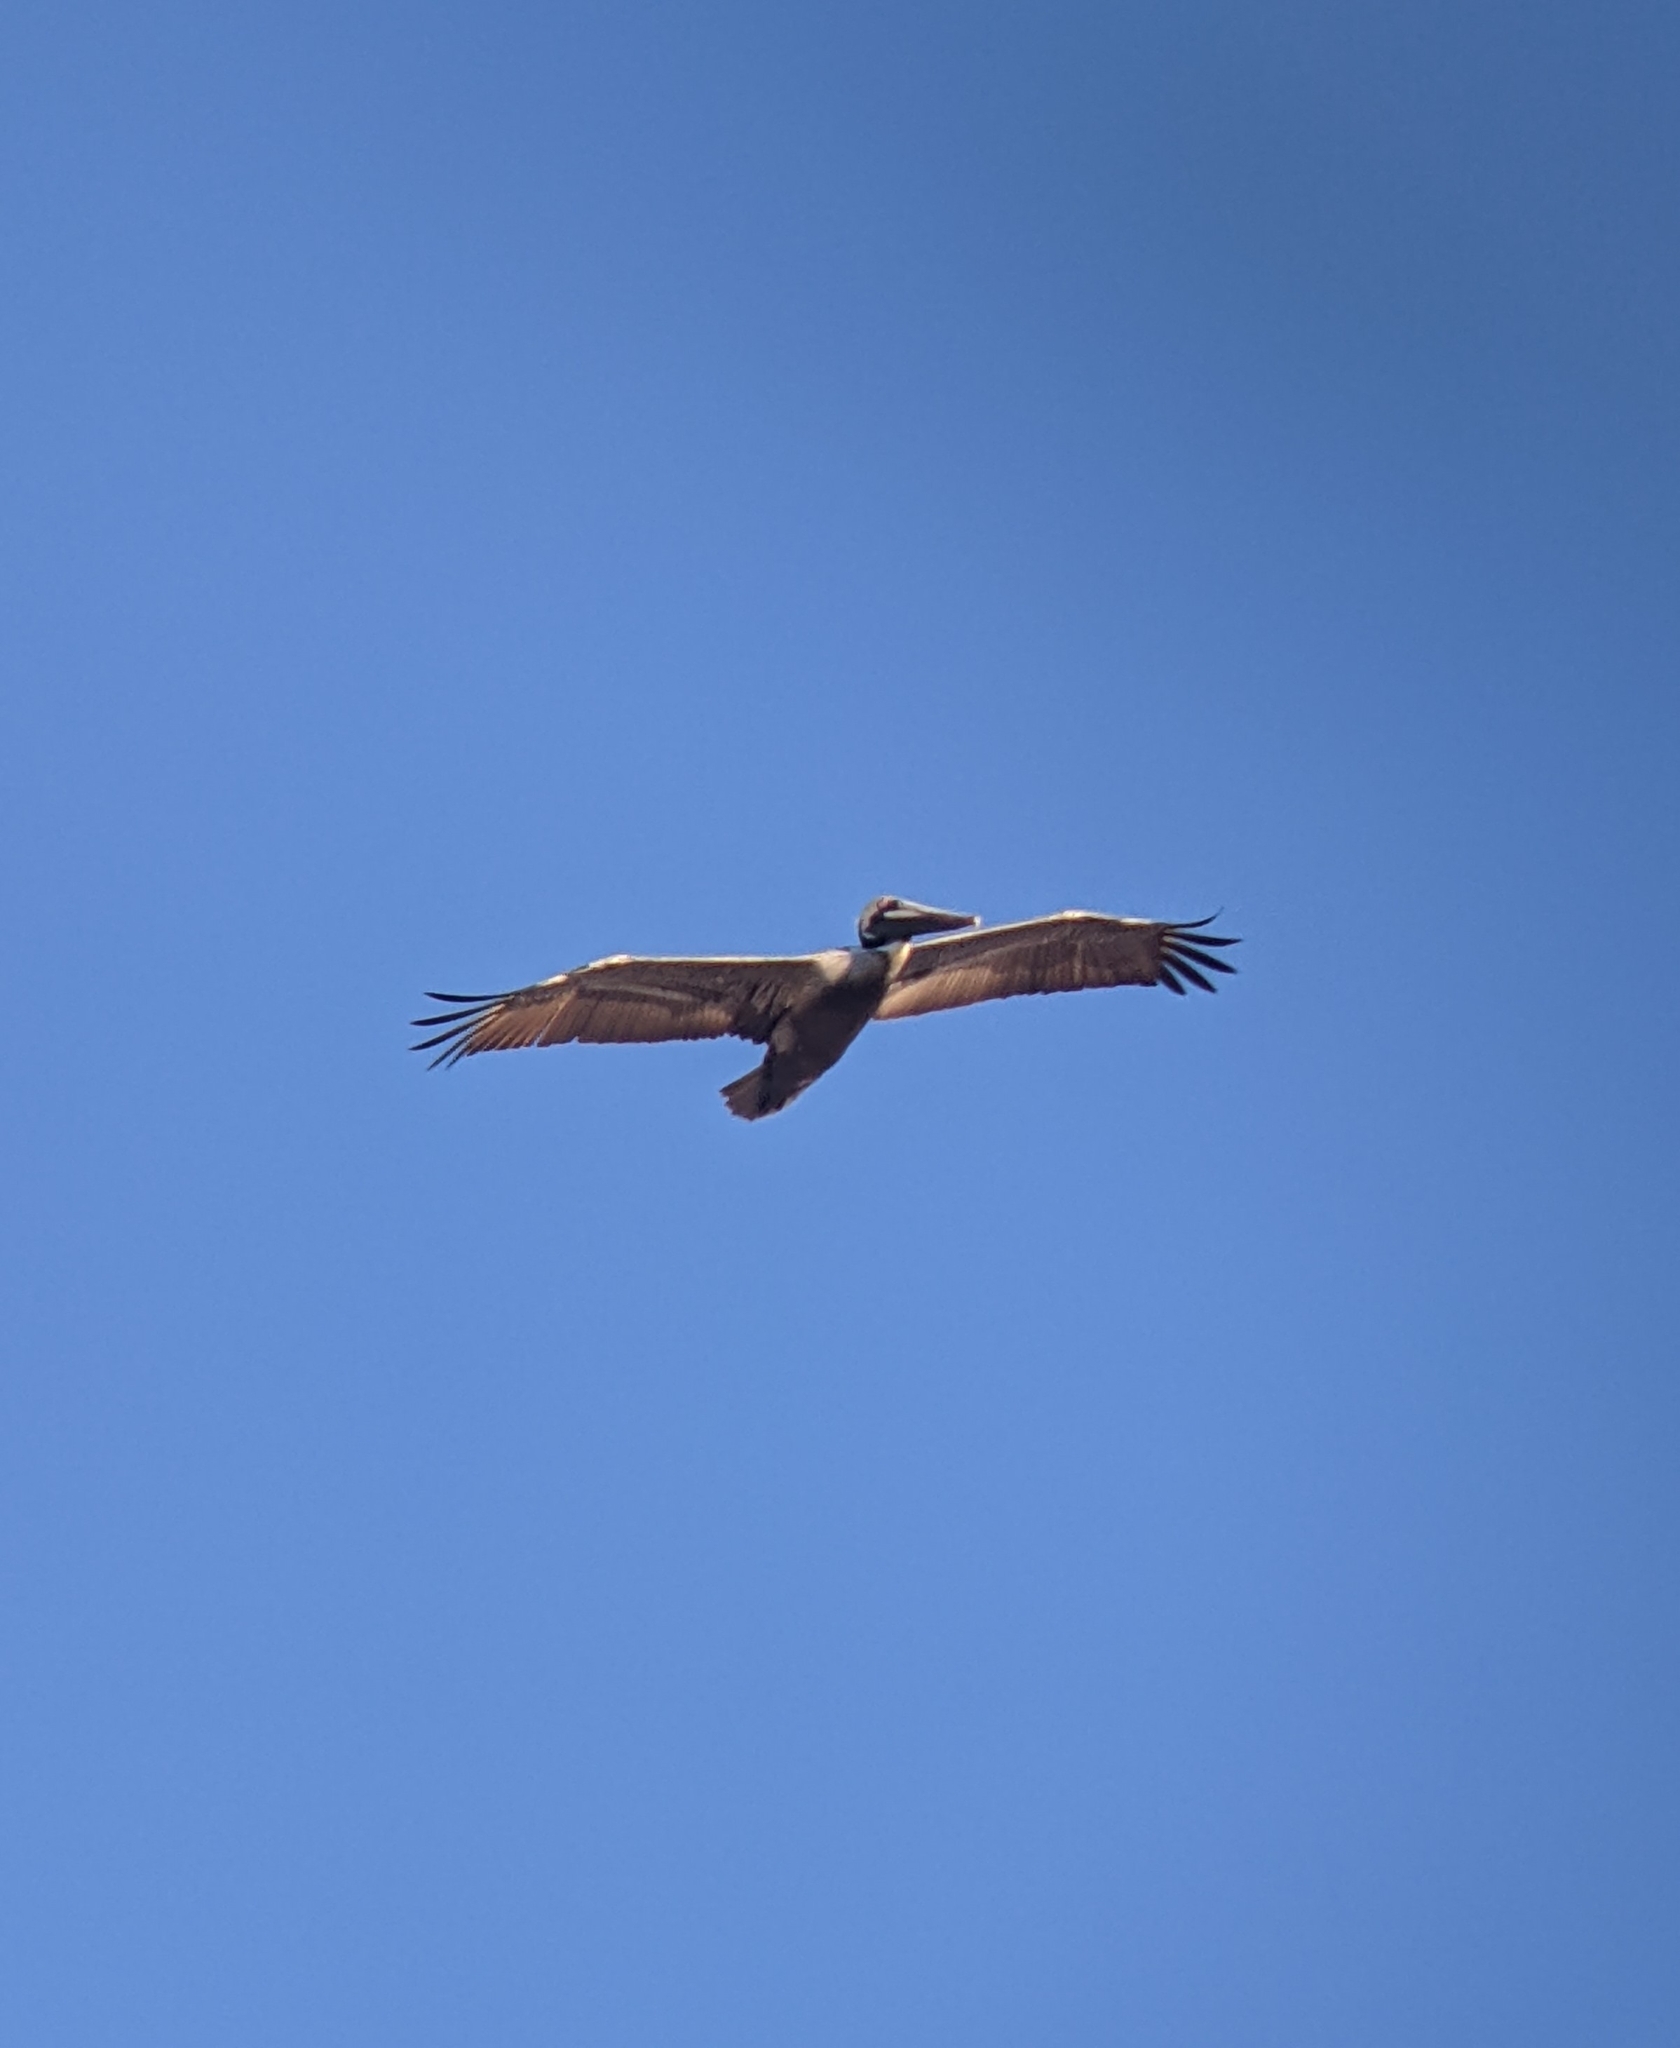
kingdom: Animalia
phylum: Chordata
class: Aves
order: Pelecaniformes
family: Pelecanidae
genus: Pelecanus
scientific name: Pelecanus occidentalis
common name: Brown pelican
